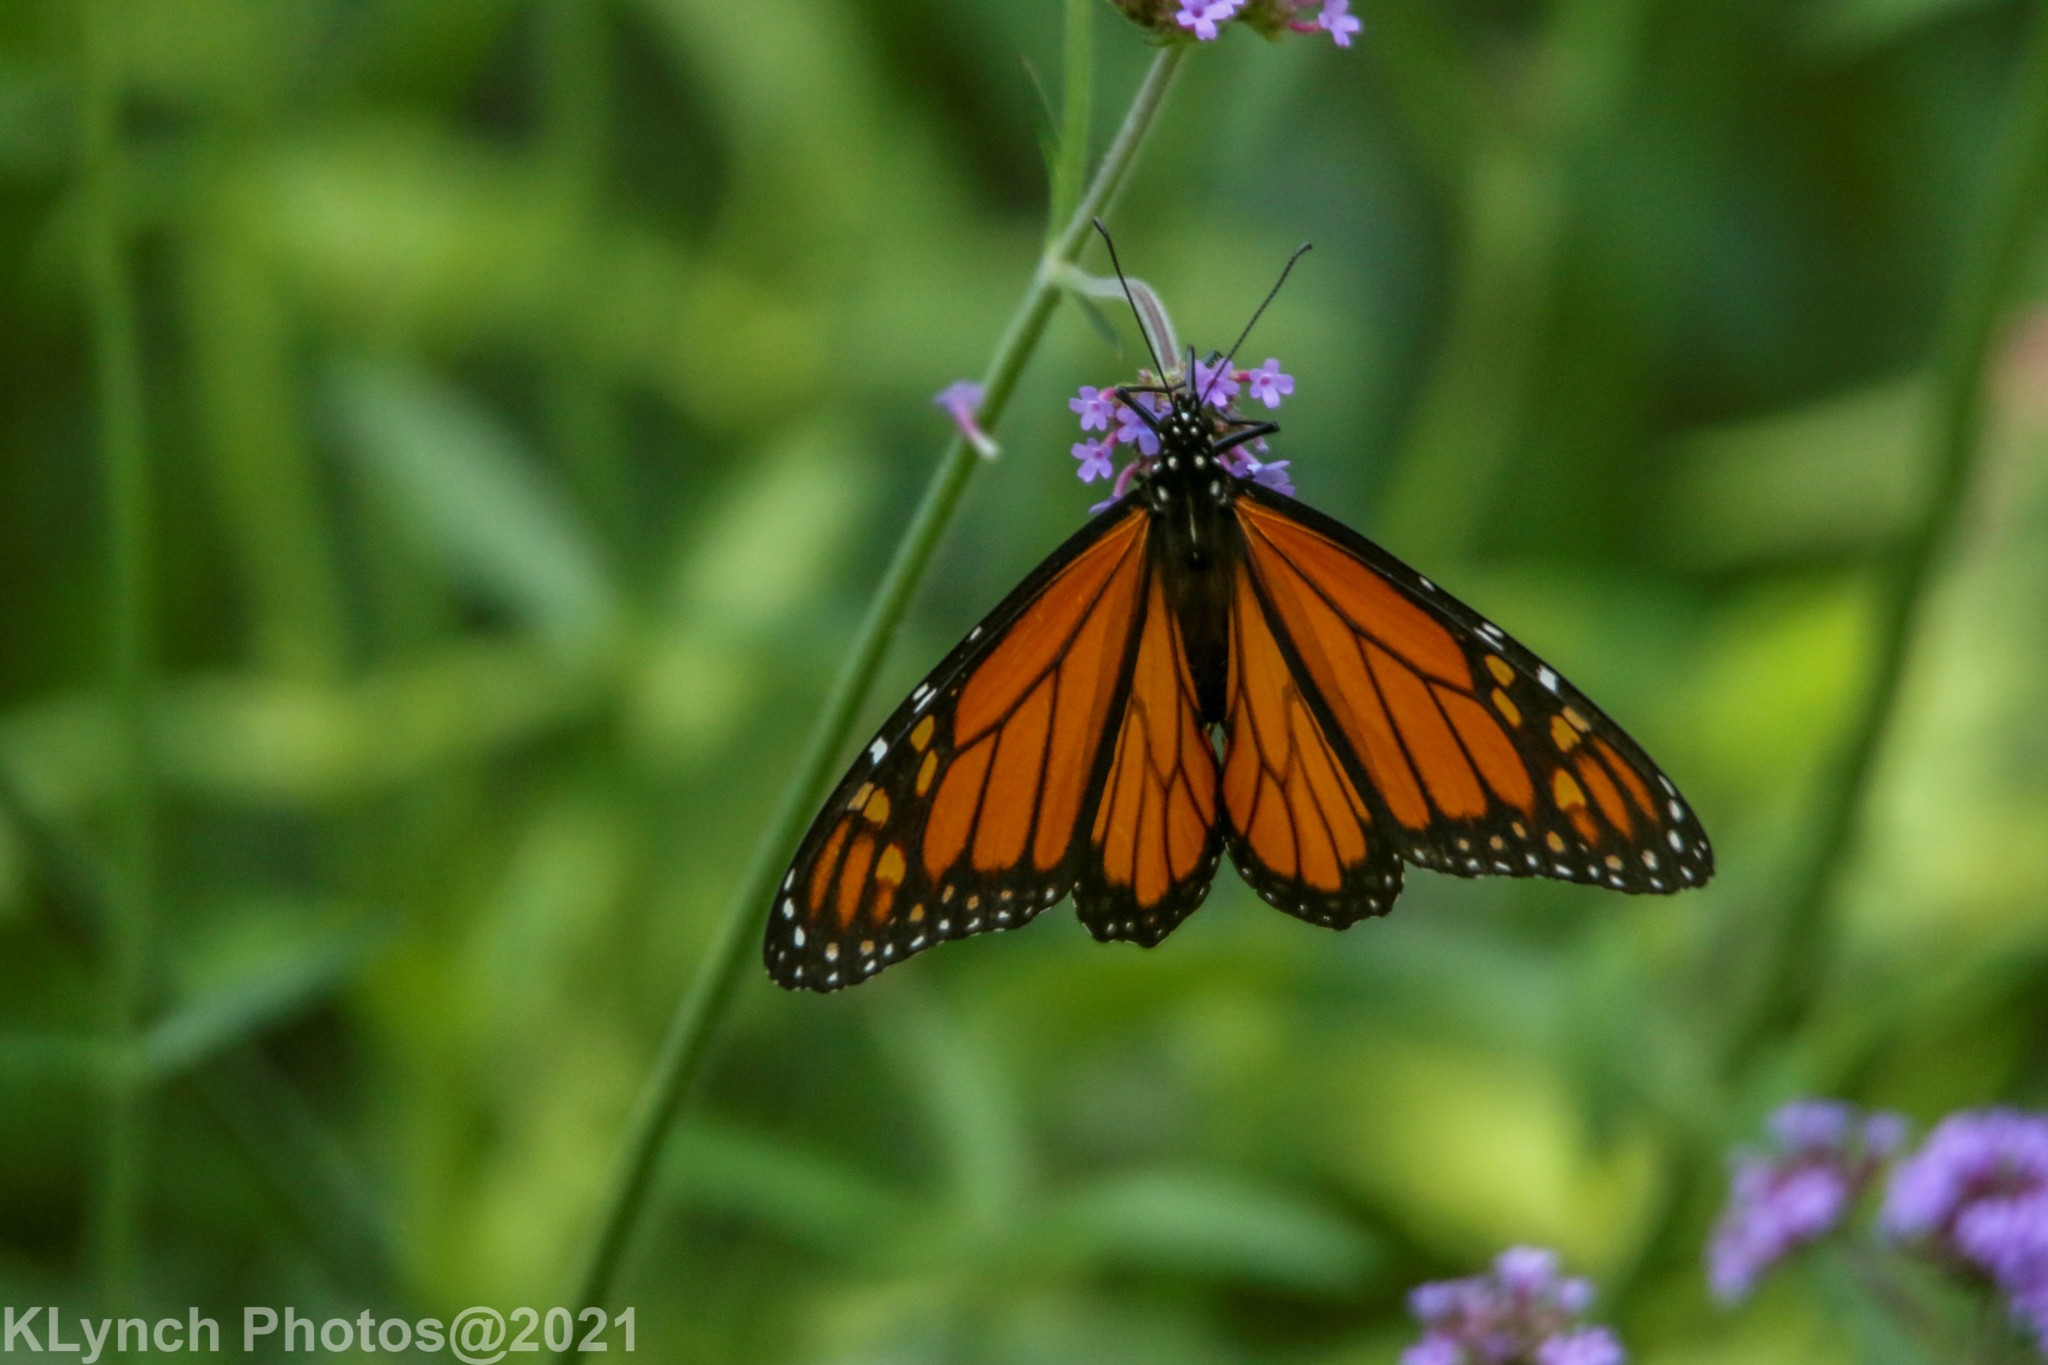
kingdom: Animalia
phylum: Arthropoda
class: Insecta
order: Lepidoptera
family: Nymphalidae
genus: Danaus
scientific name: Danaus plexippus
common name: Monarch
